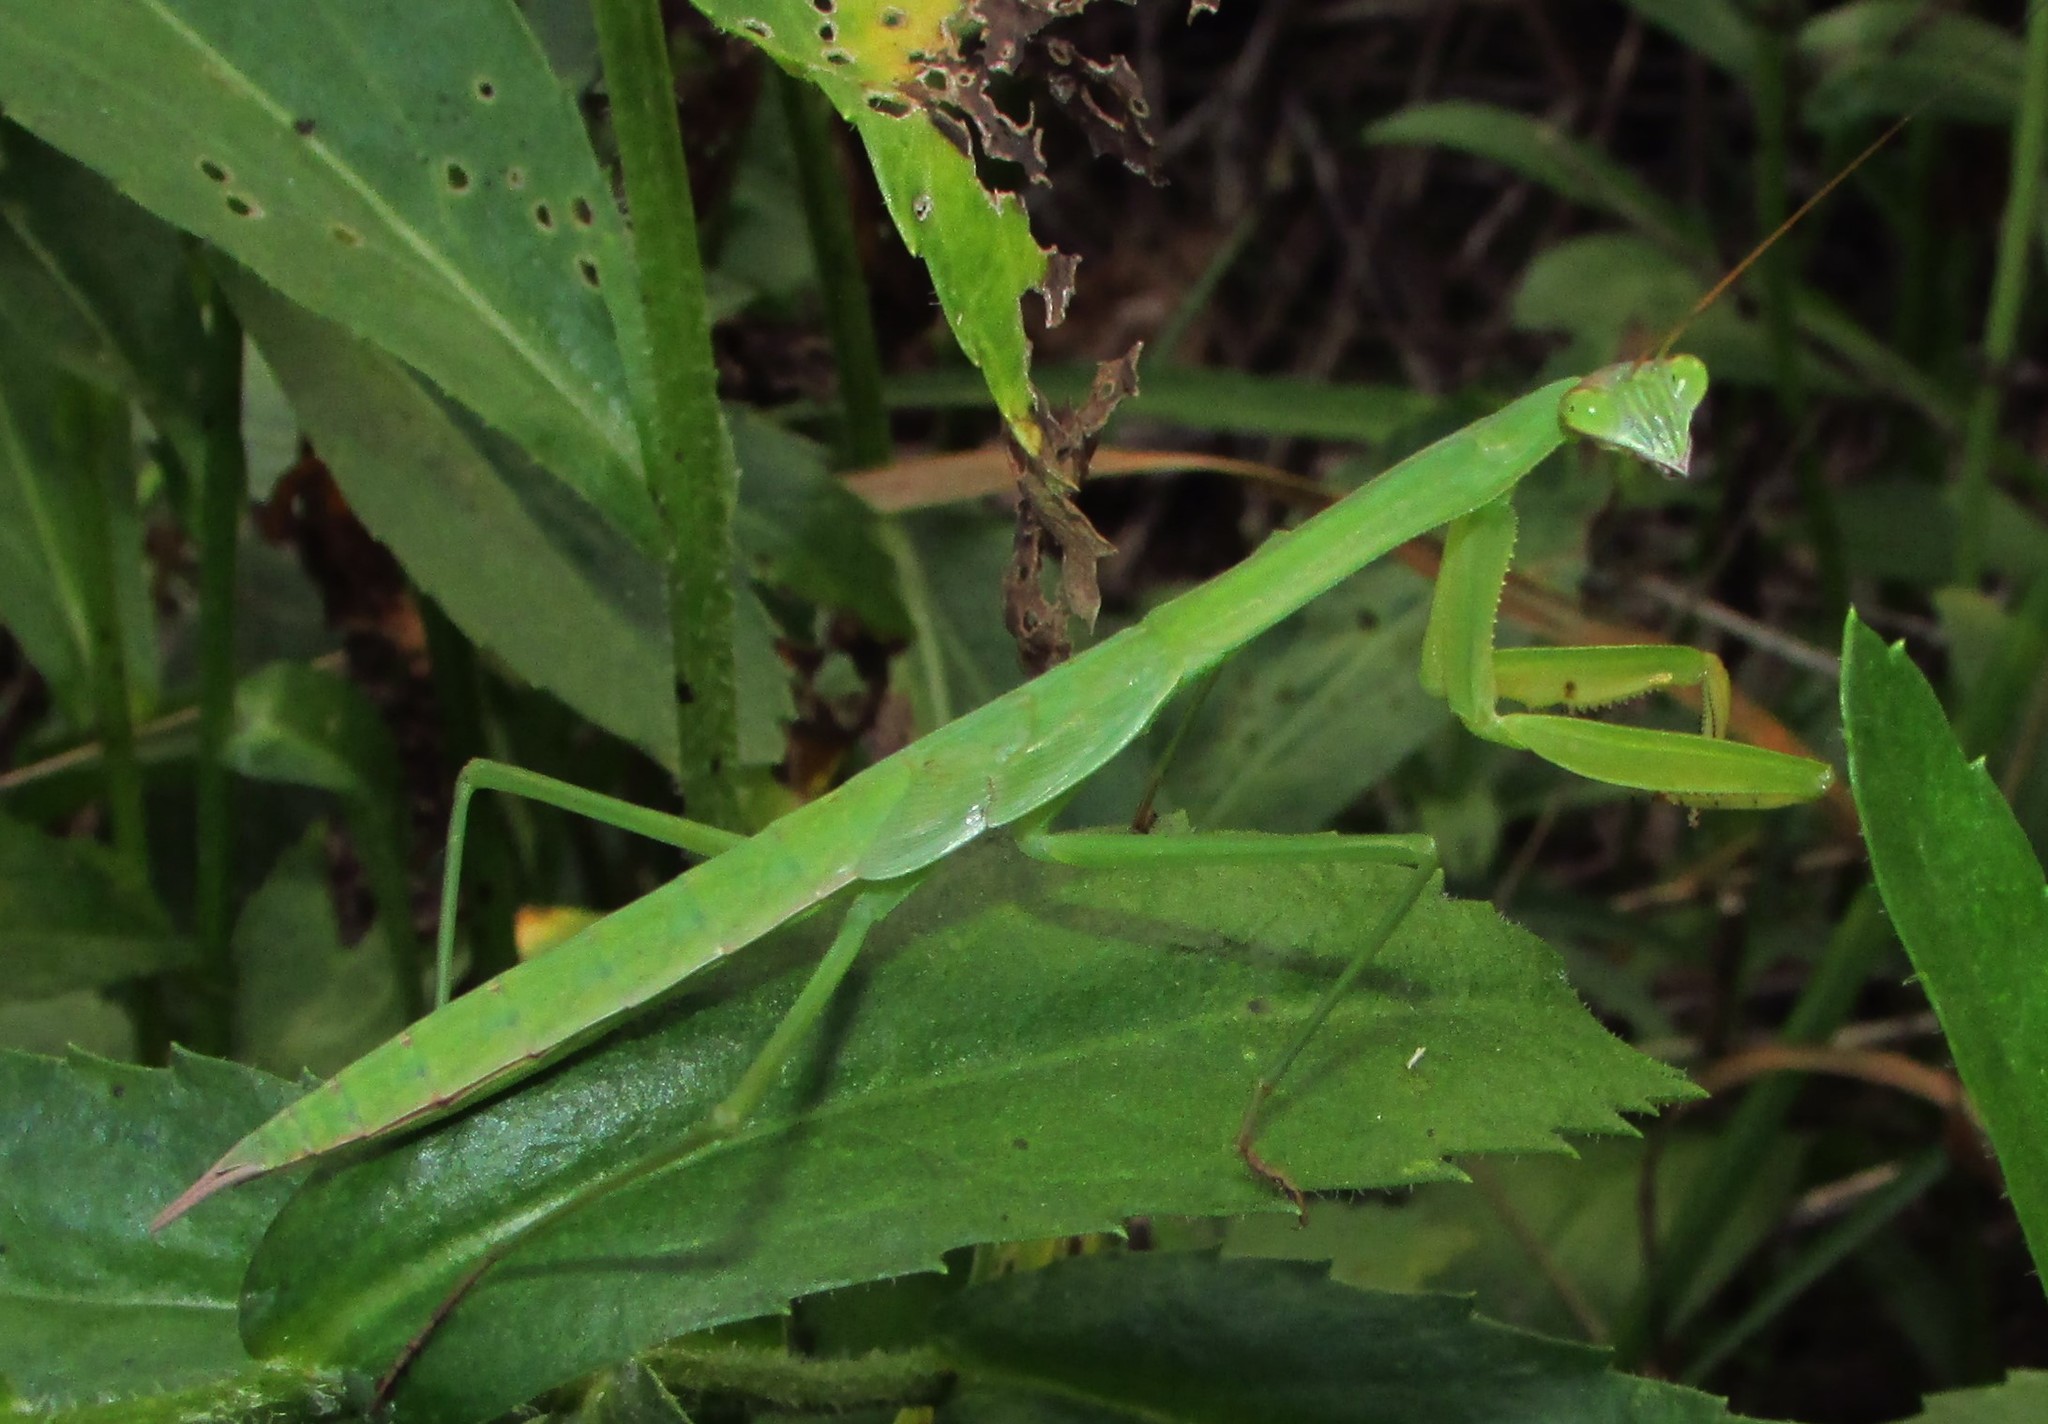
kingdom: Animalia
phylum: Arthropoda
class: Insecta
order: Mantodea
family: Mantidae
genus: Tenodera
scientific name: Tenodera sinensis
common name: Chinese mantis
